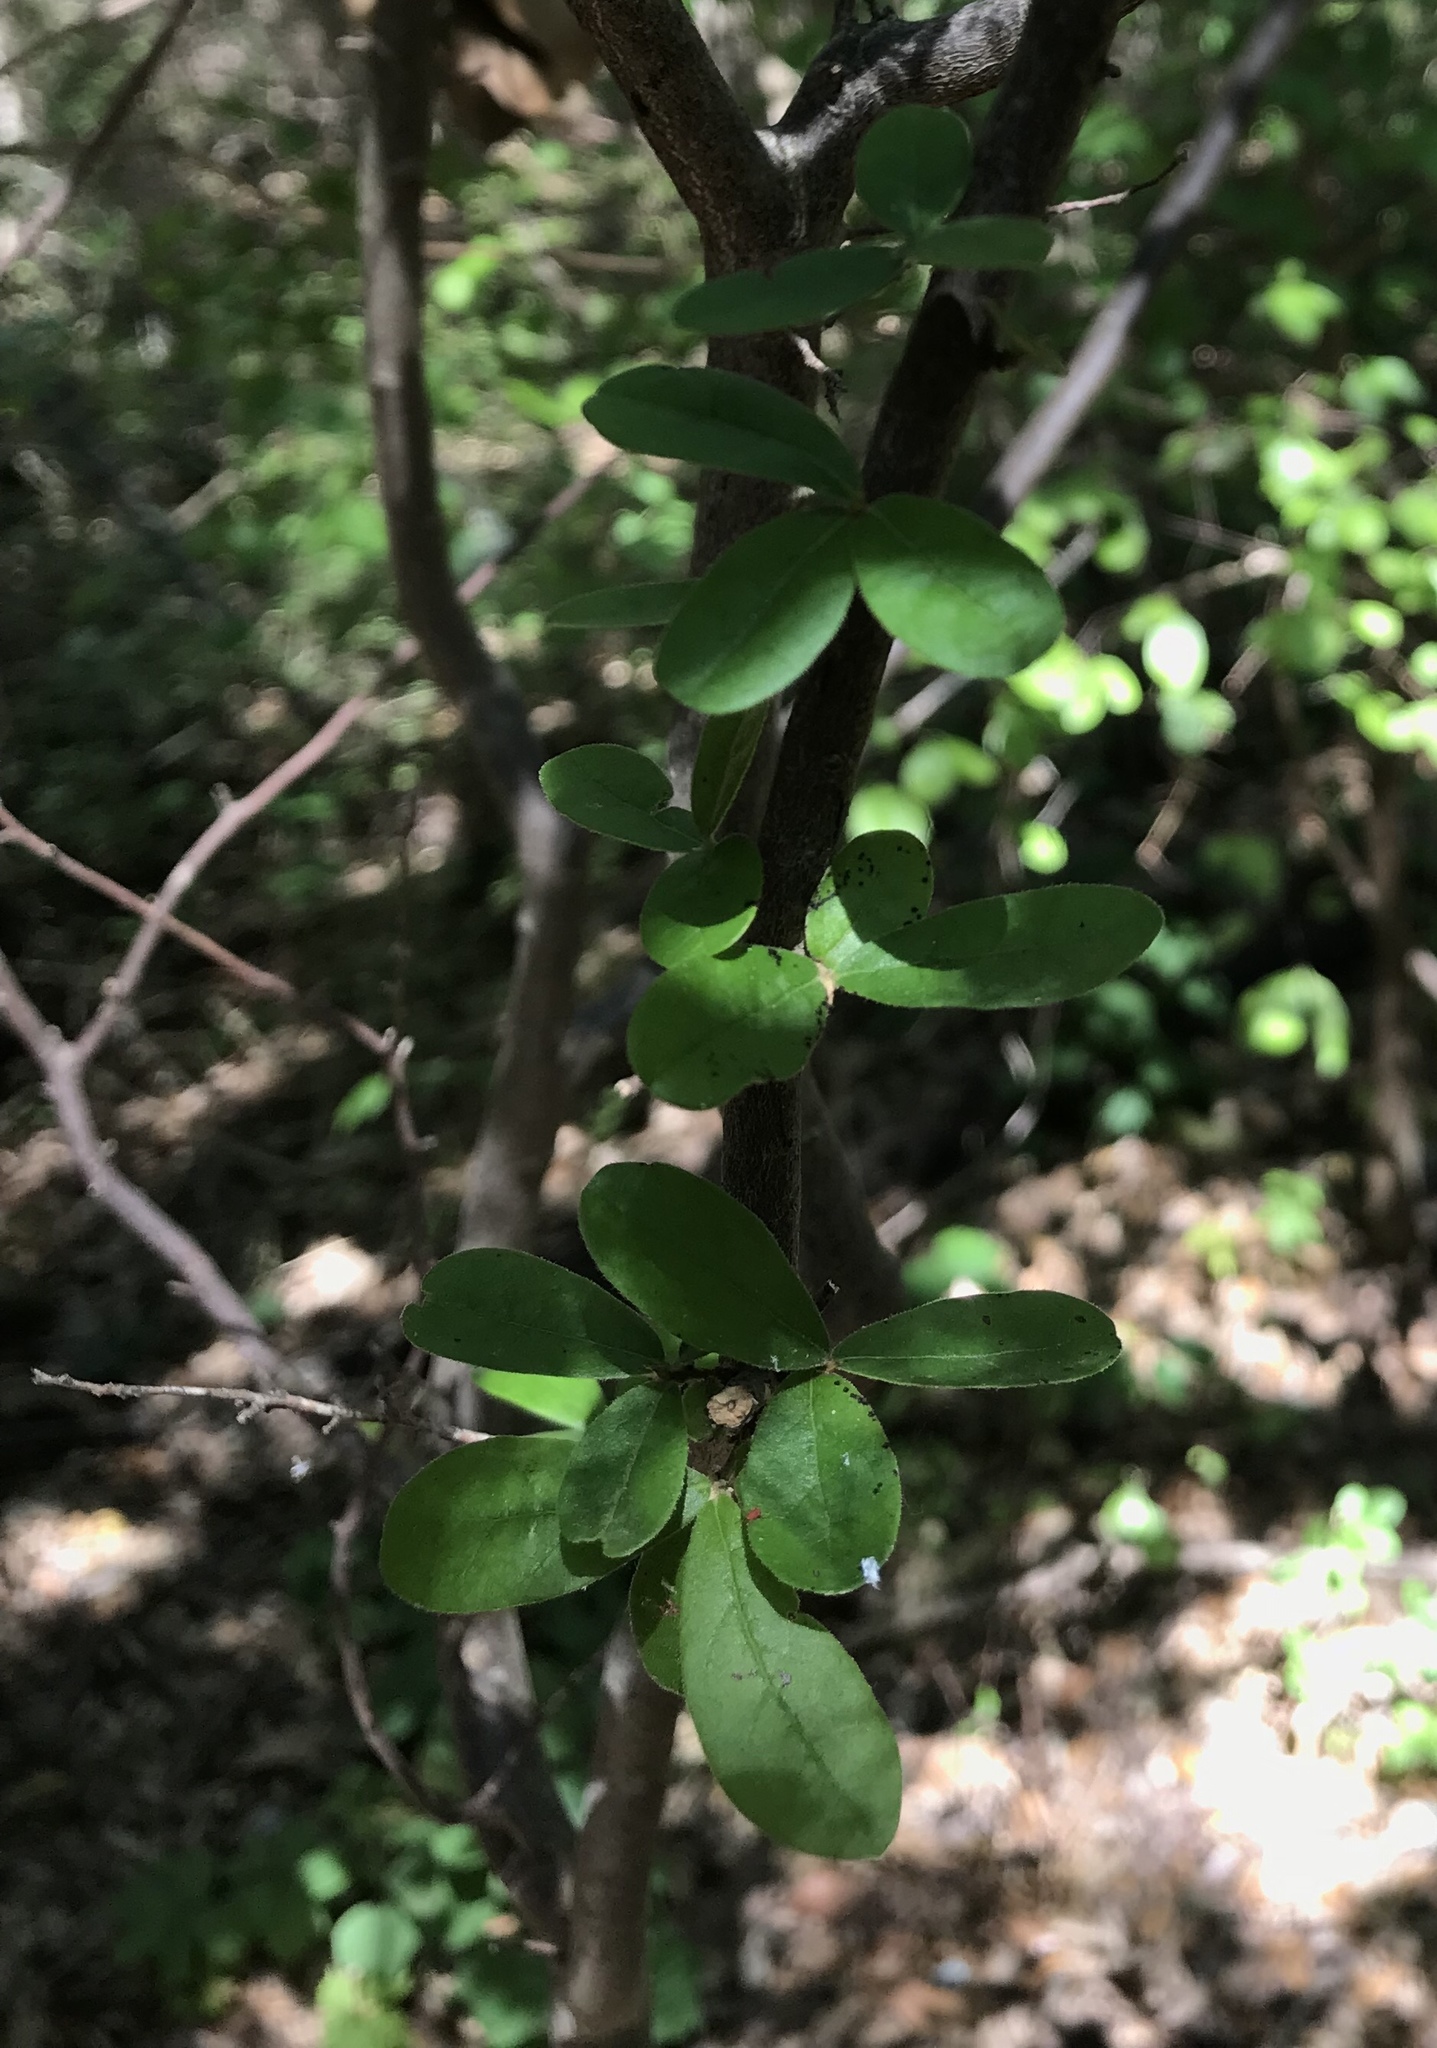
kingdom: Plantae
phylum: Tracheophyta
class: Magnoliopsida
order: Ericales
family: Ebenaceae
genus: Diospyros
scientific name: Diospyros texana
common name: Texas persimmon
